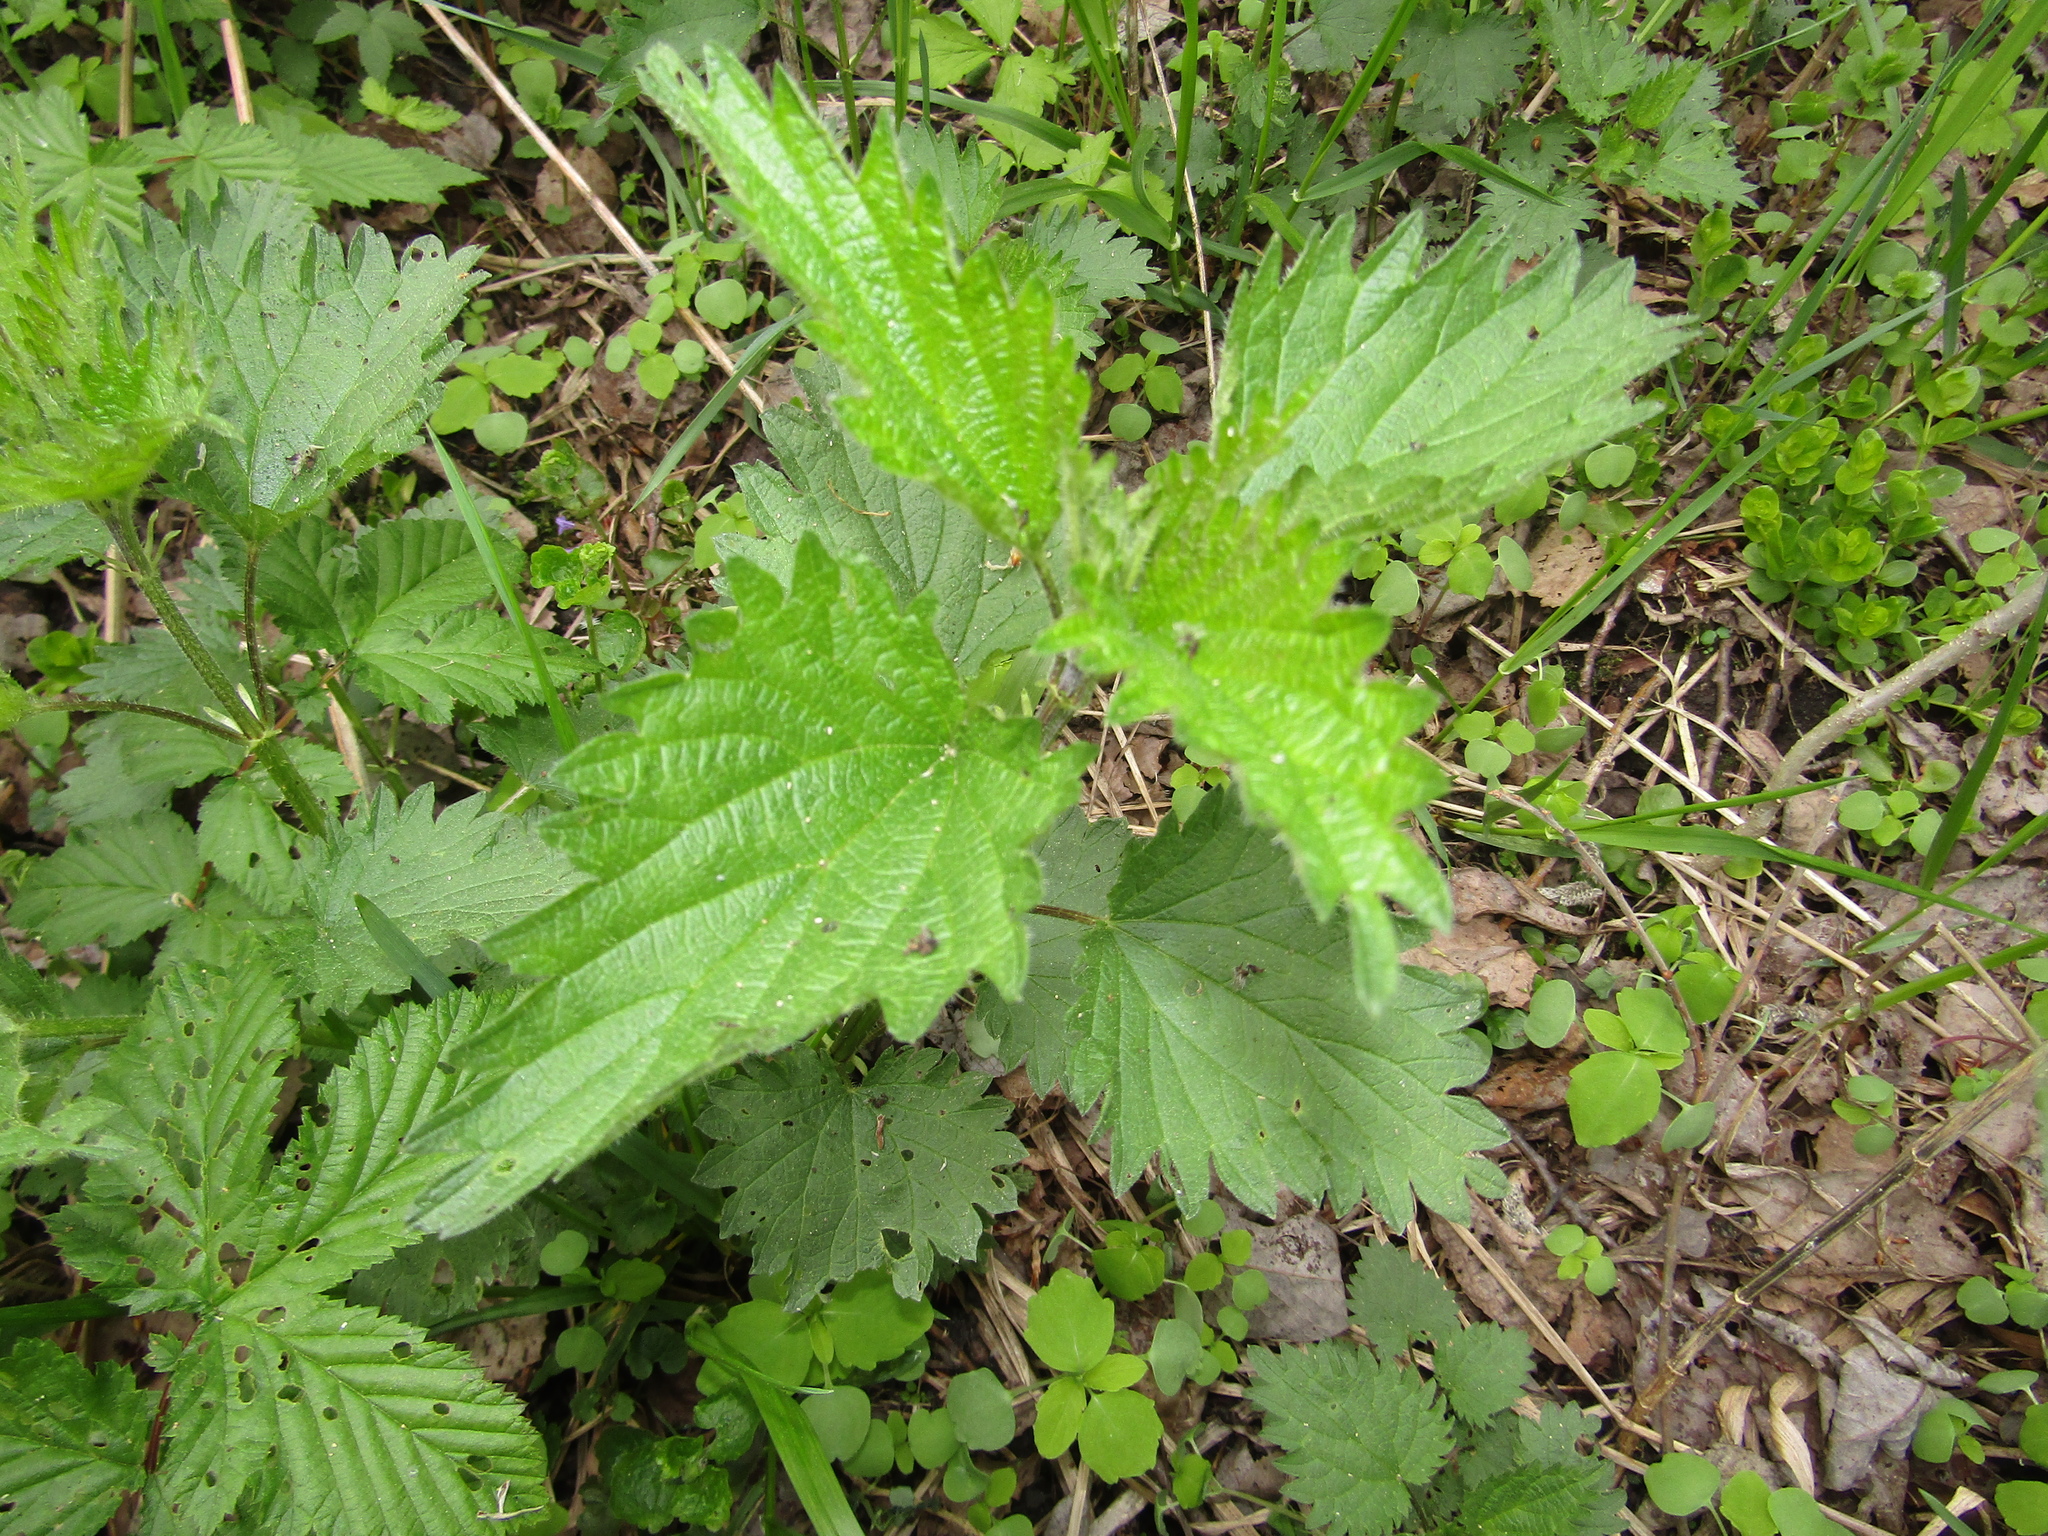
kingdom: Plantae
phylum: Tracheophyta
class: Magnoliopsida
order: Rosales
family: Urticaceae
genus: Urtica
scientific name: Urtica dioica
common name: Common nettle
